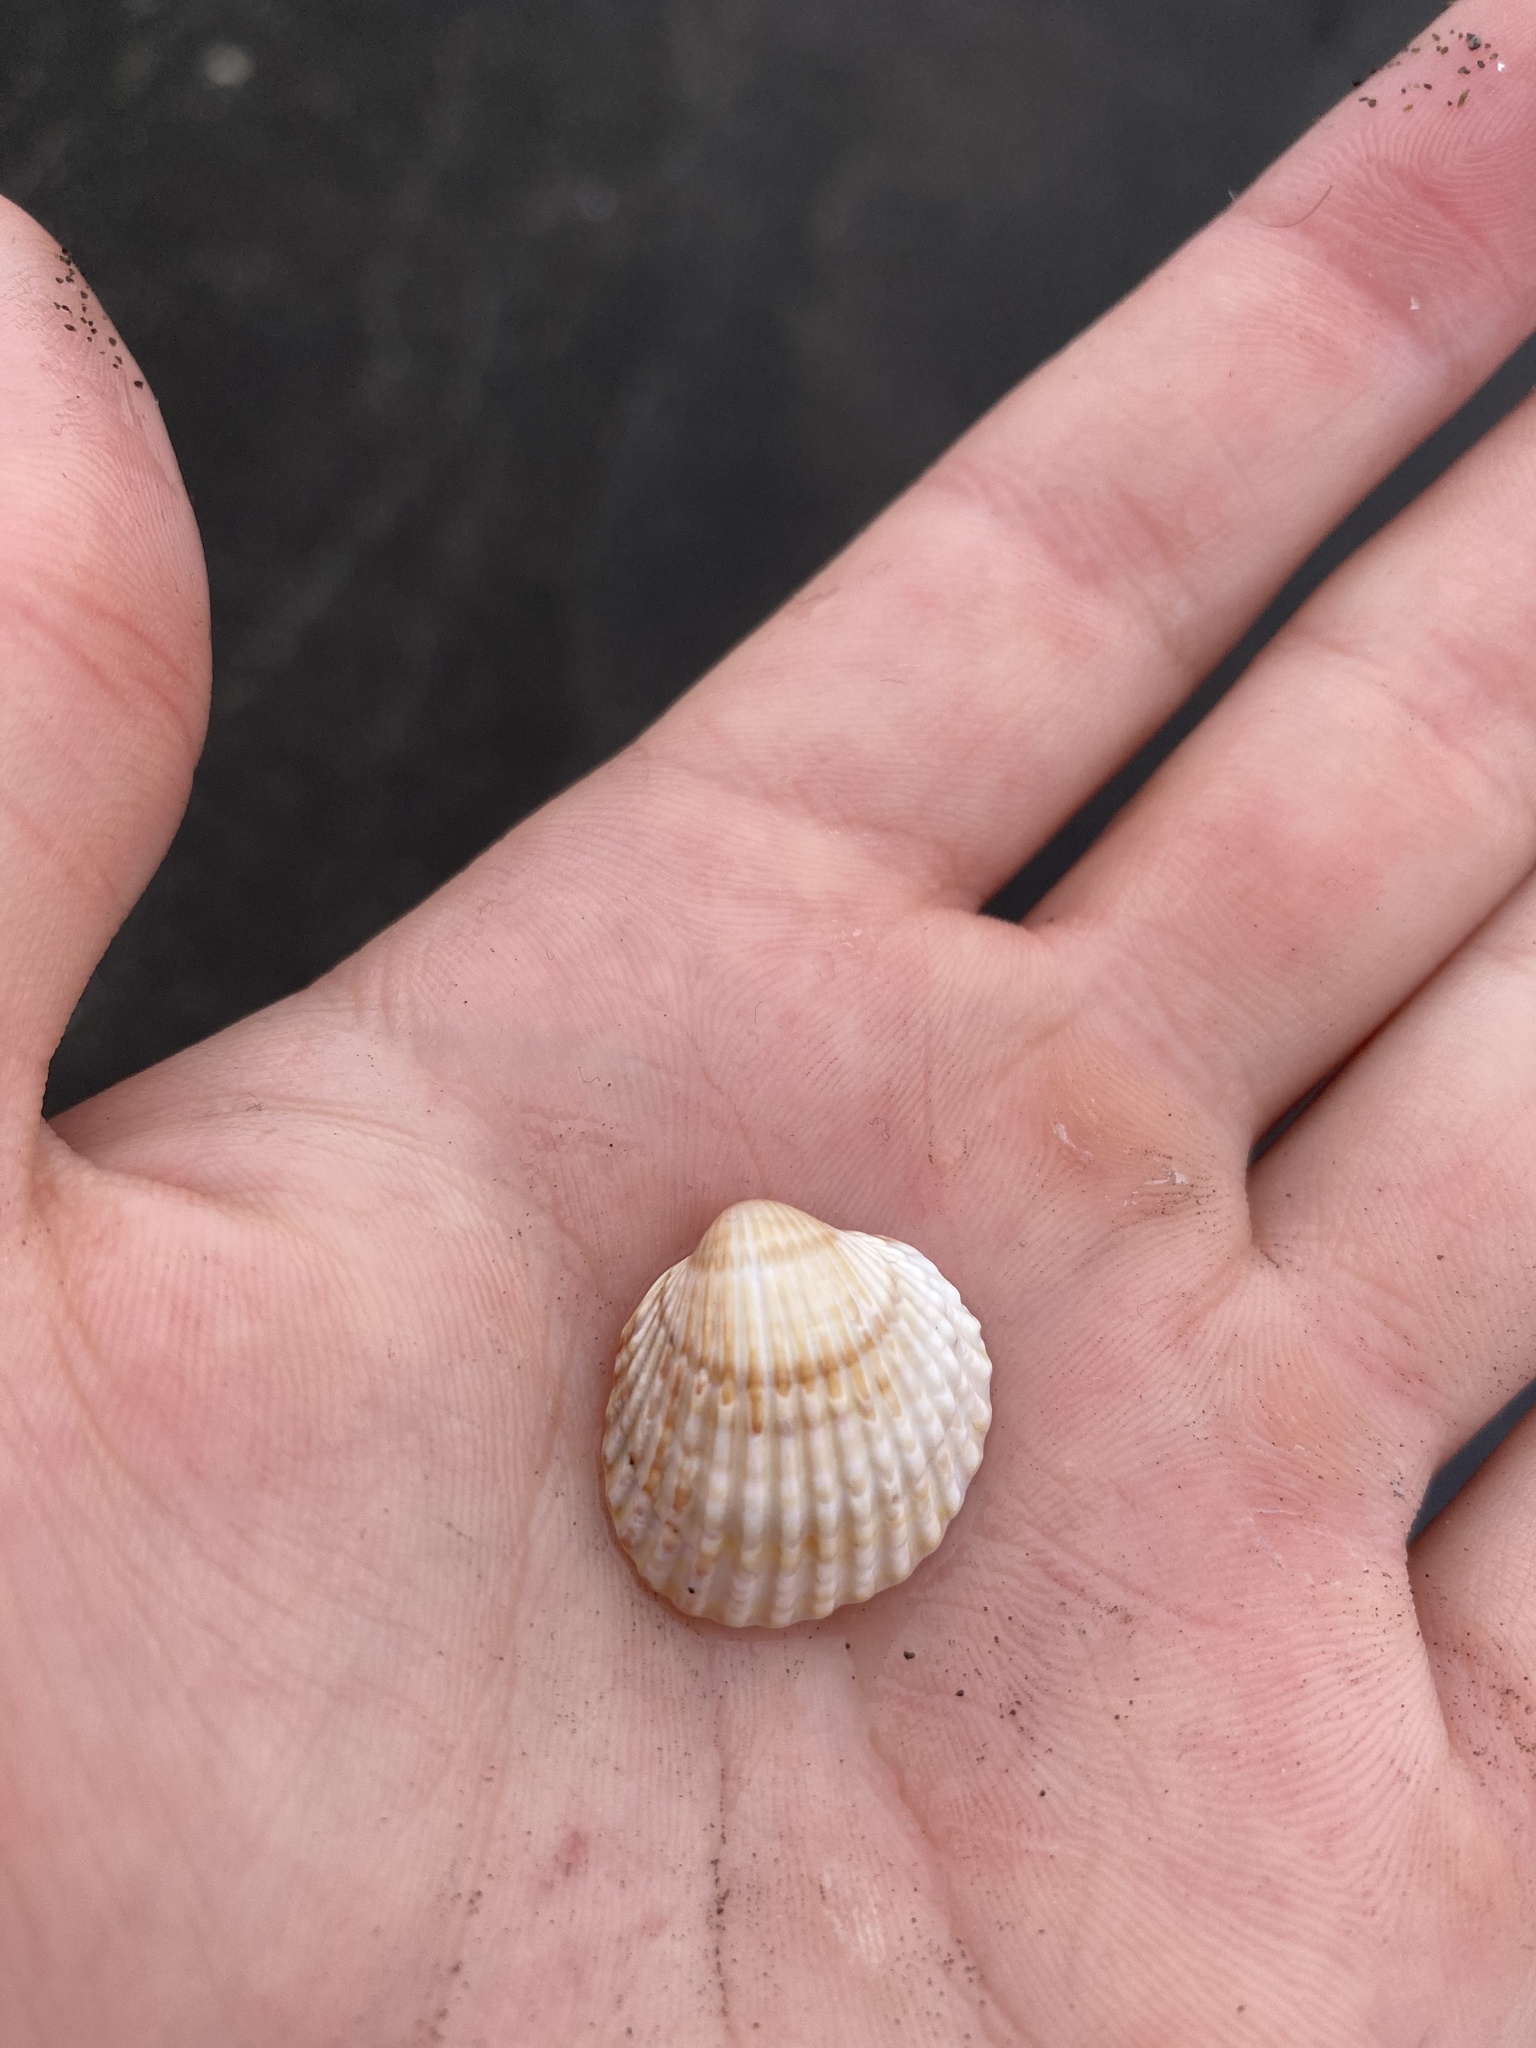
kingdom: Animalia
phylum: Mollusca
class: Bivalvia
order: Cardiida
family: Cardiidae
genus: Acanthocardia
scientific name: Acanthocardia tuberculata
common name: Rough cockle
